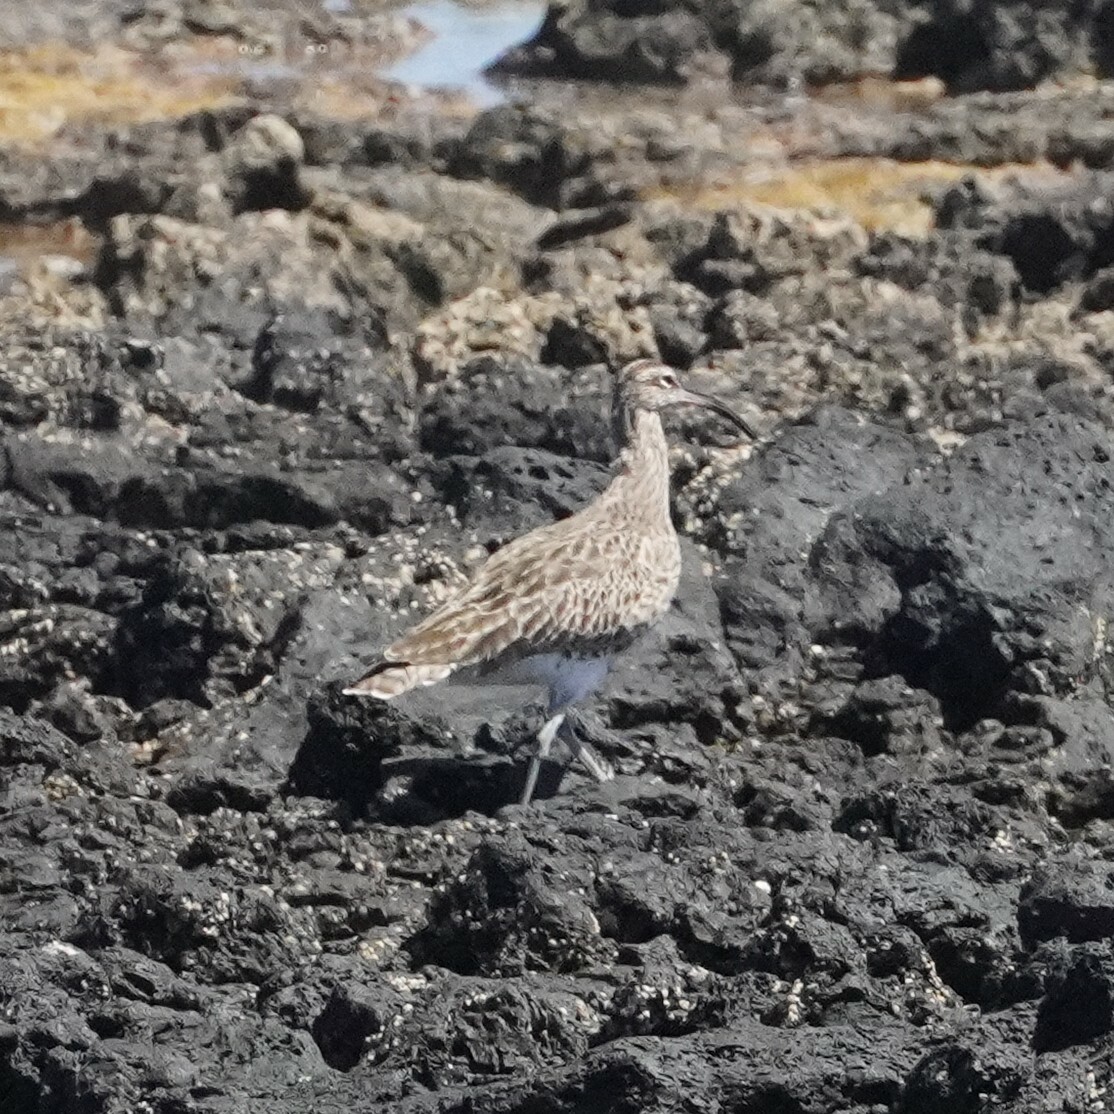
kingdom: Animalia
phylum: Chordata
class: Aves
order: Charadriiformes
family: Scolopacidae
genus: Numenius
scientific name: Numenius phaeopus
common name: Whimbrel
